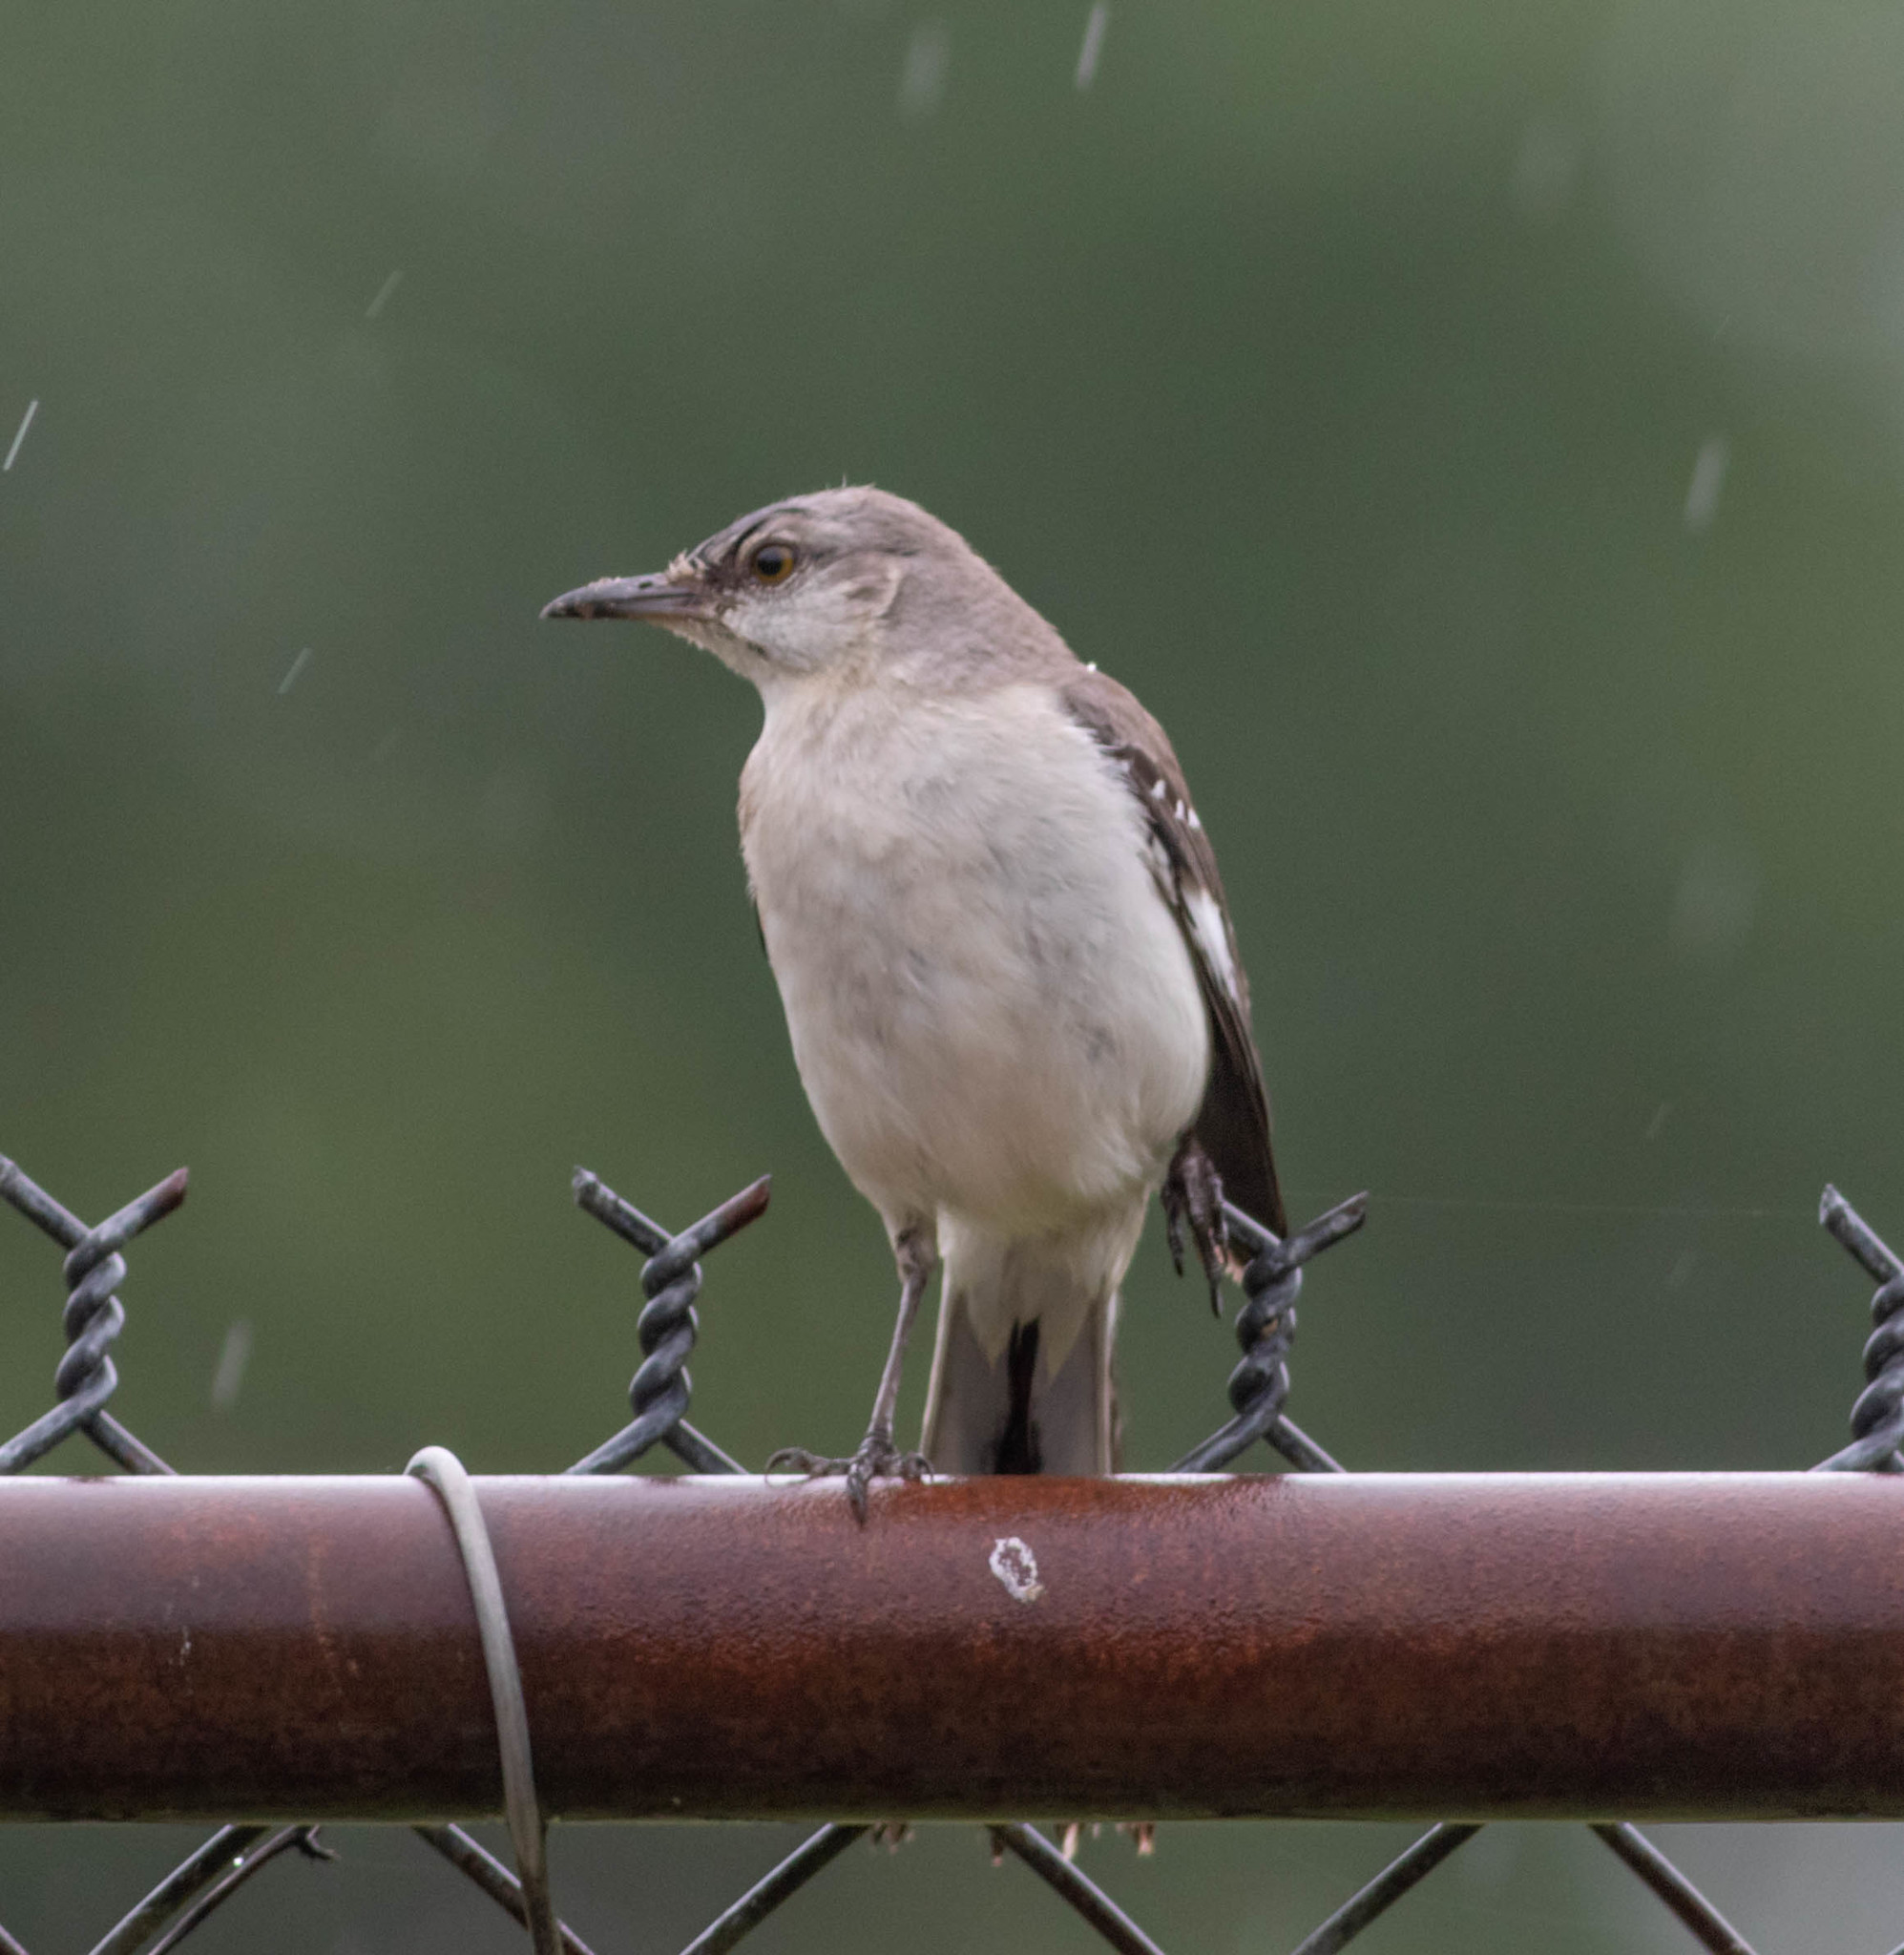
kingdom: Animalia
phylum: Chordata
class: Aves
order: Passeriformes
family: Mimidae
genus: Mimus
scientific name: Mimus polyglottos
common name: Northern mockingbird
